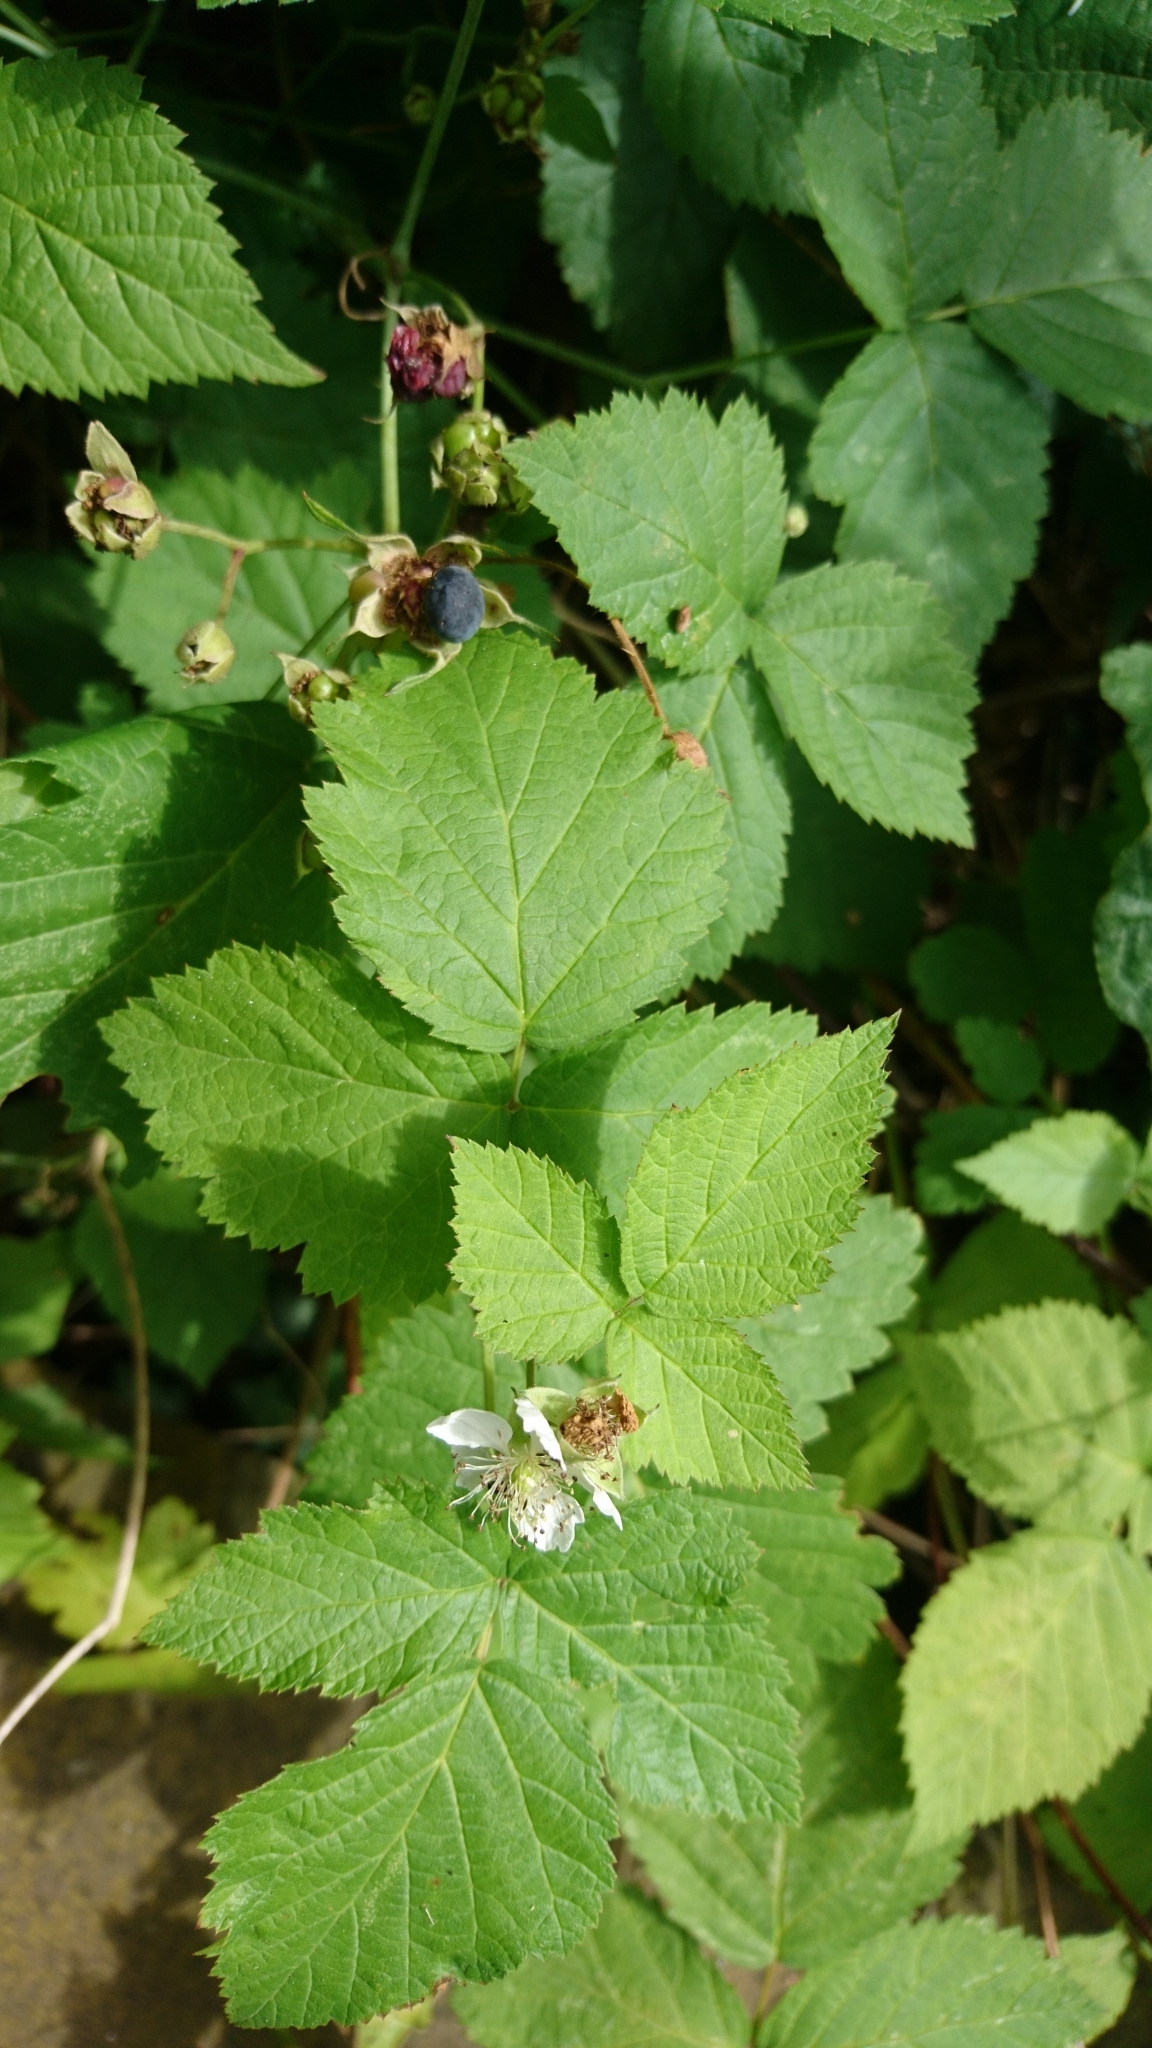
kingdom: Plantae
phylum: Tracheophyta
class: Magnoliopsida
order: Rosales
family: Rosaceae
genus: Rubus
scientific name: Rubus caesius
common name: Dewberry
